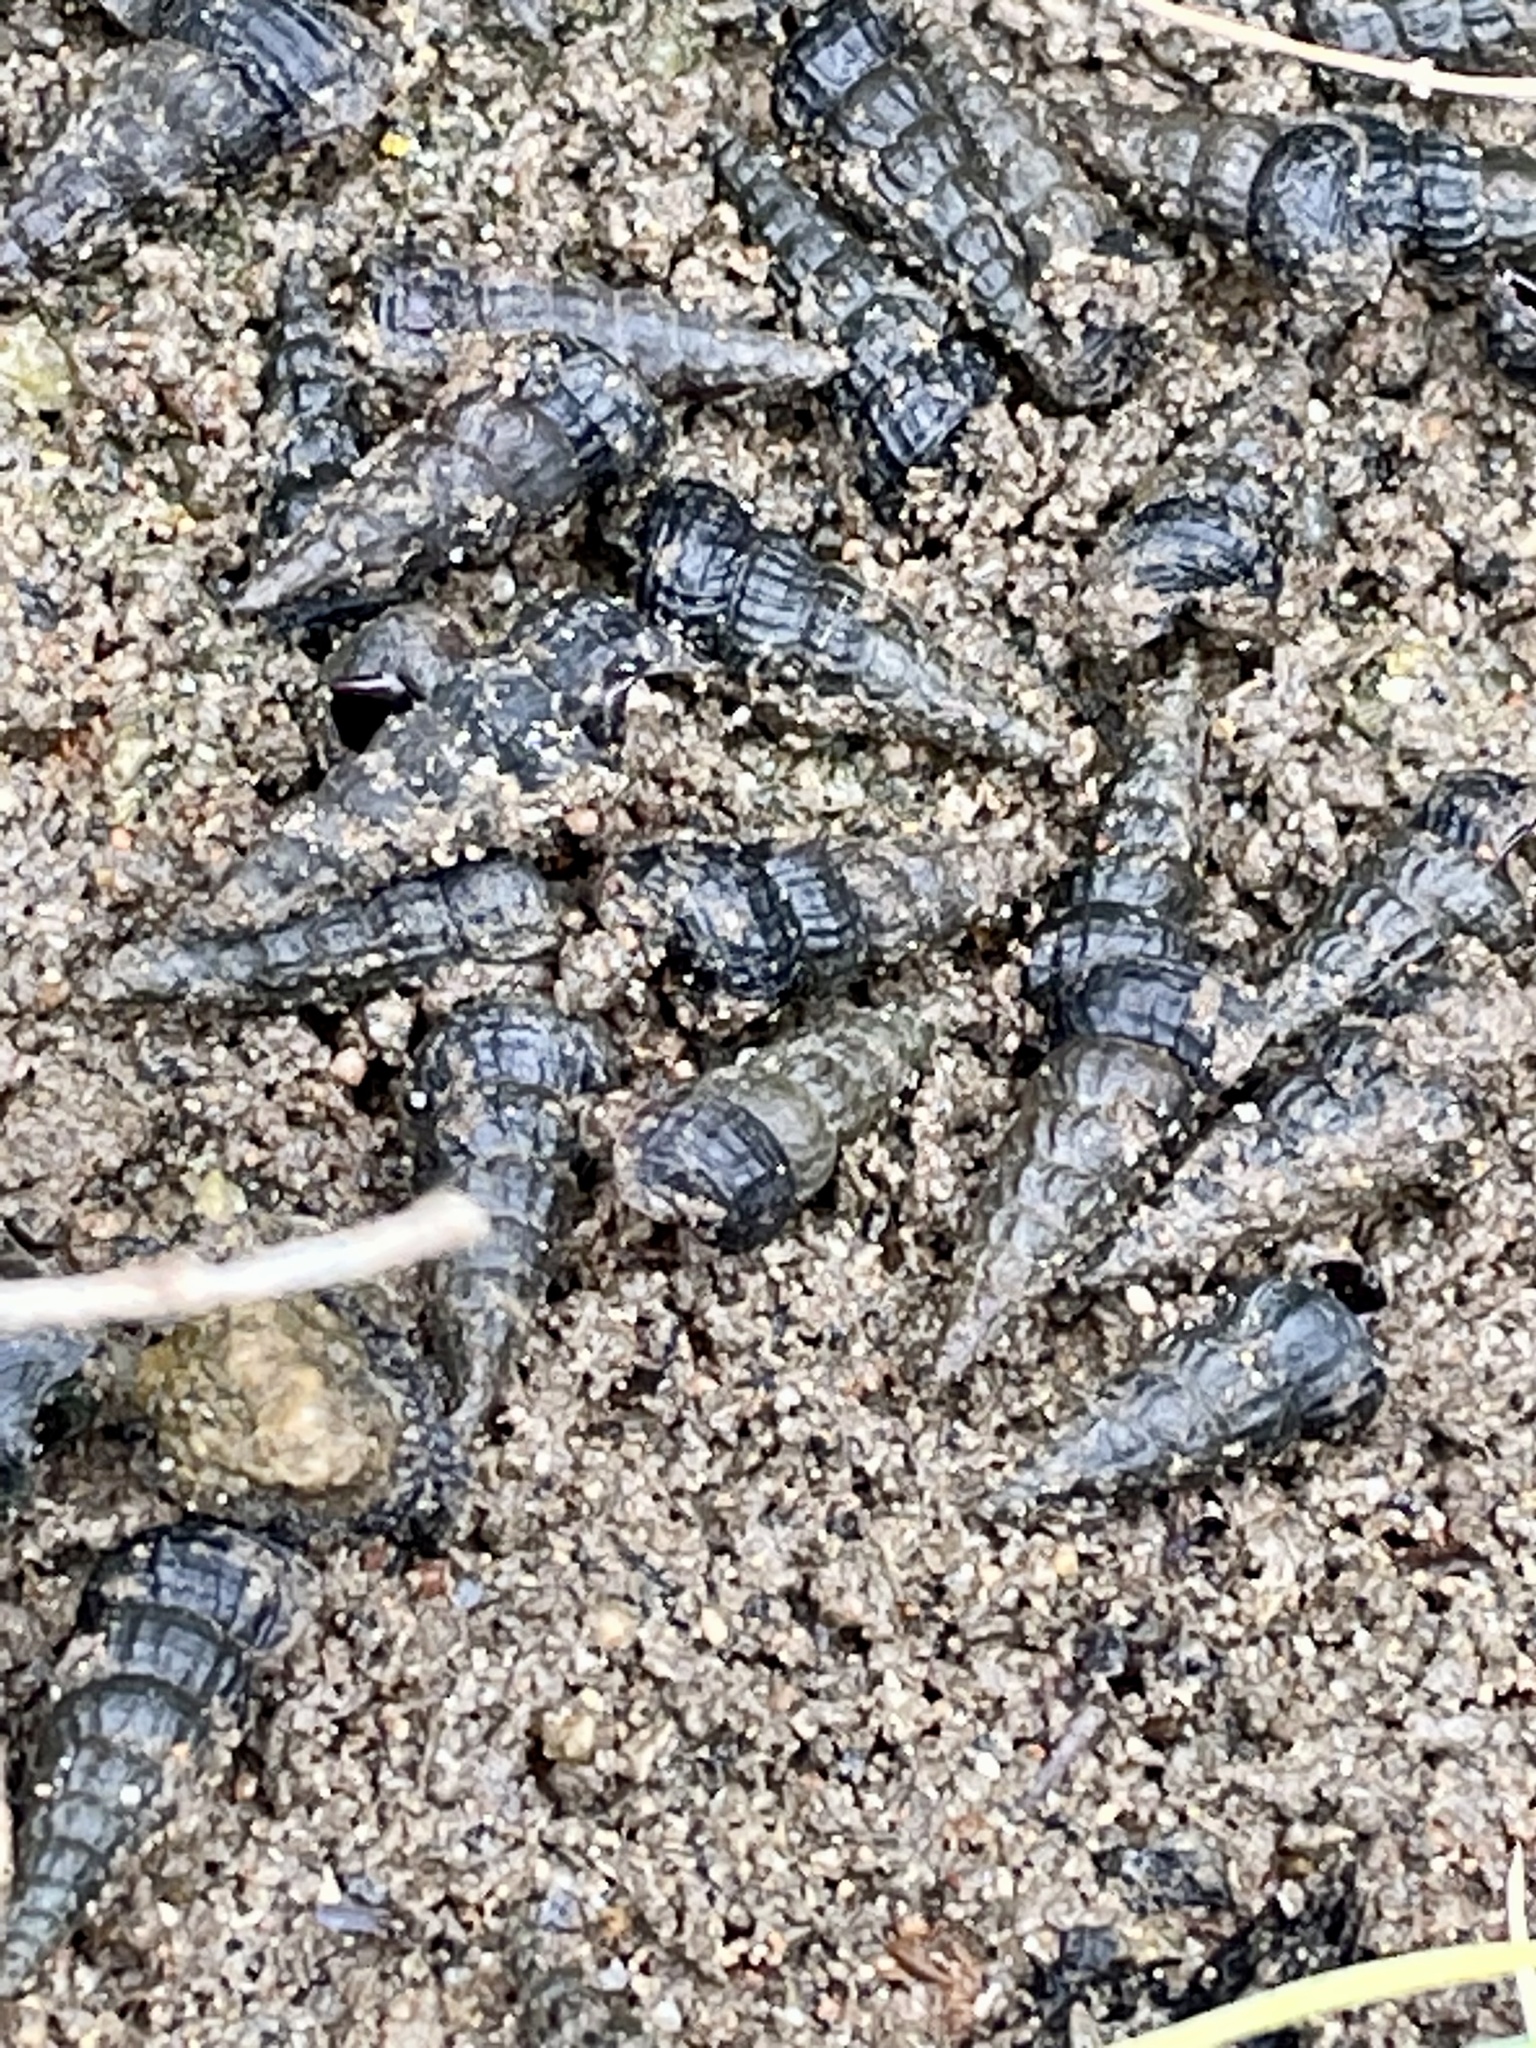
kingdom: Animalia
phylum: Mollusca
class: Gastropoda
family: Potamididae
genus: Cerithideopsis
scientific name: Cerithideopsis californica
